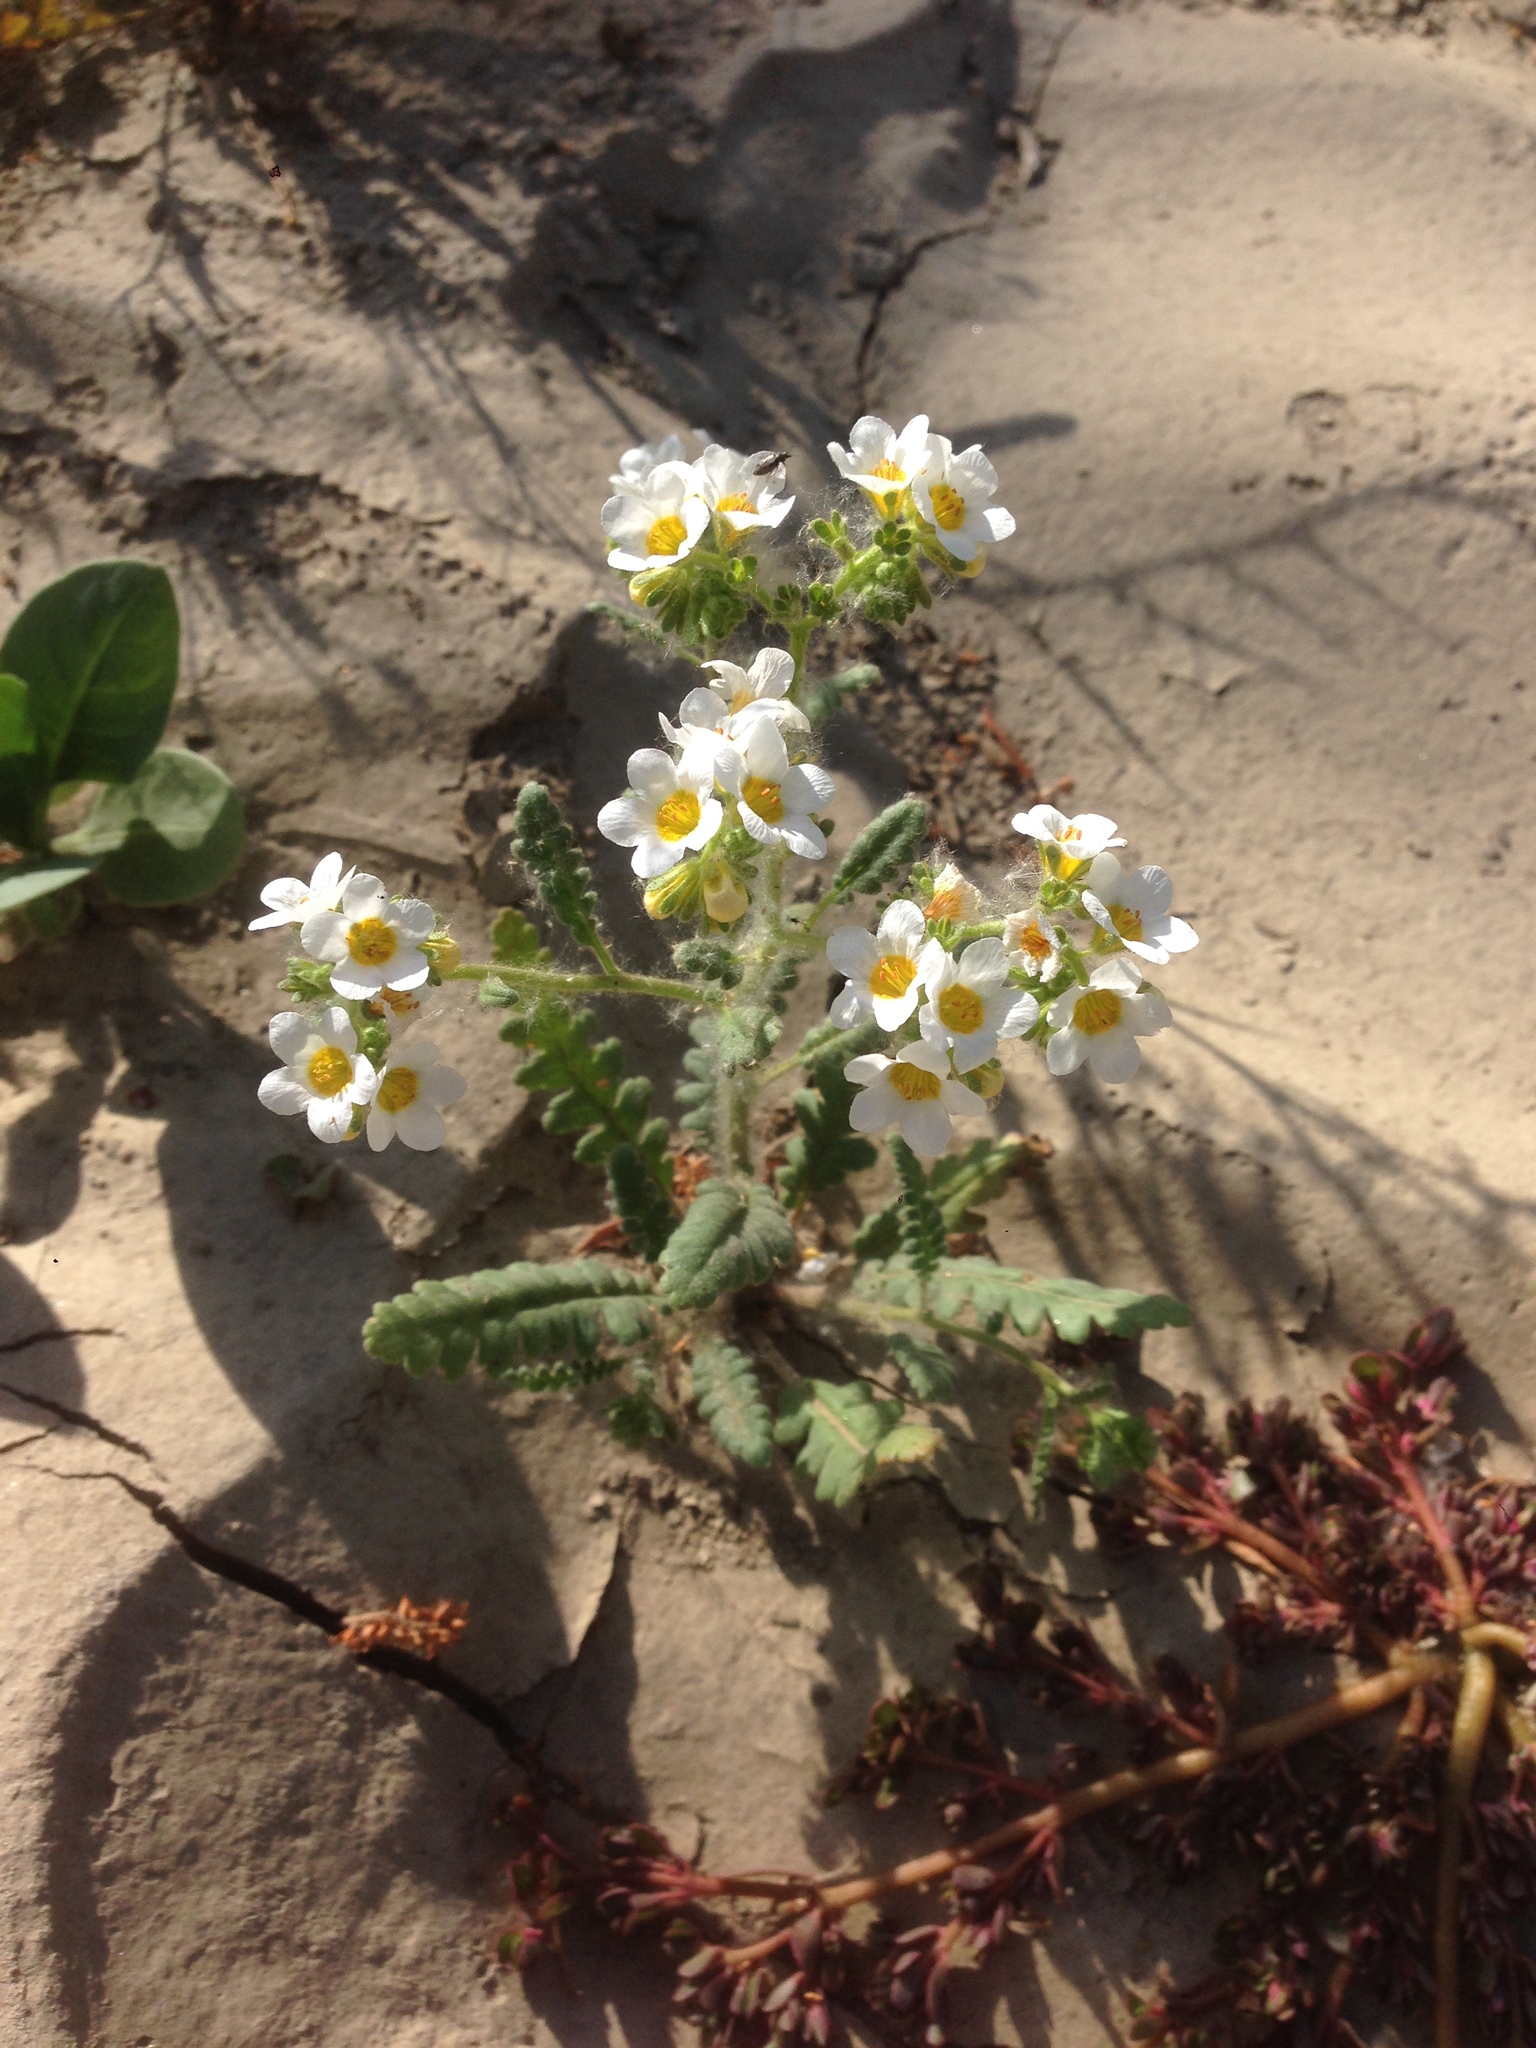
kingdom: Plantae
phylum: Tracheophyta
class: Magnoliopsida
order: Boraginales
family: Hydrophyllaceae
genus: Phacelia
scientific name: Phacelia brachyloba
